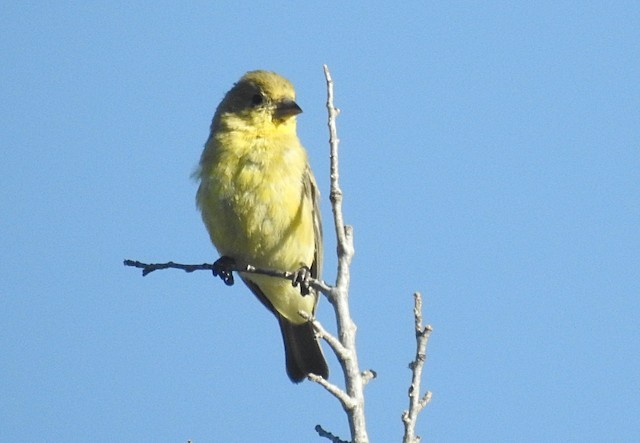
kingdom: Animalia
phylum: Chordata
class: Aves
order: Passeriformes
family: Fringillidae
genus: Spinus
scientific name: Spinus psaltria
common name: Lesser goldfinch
